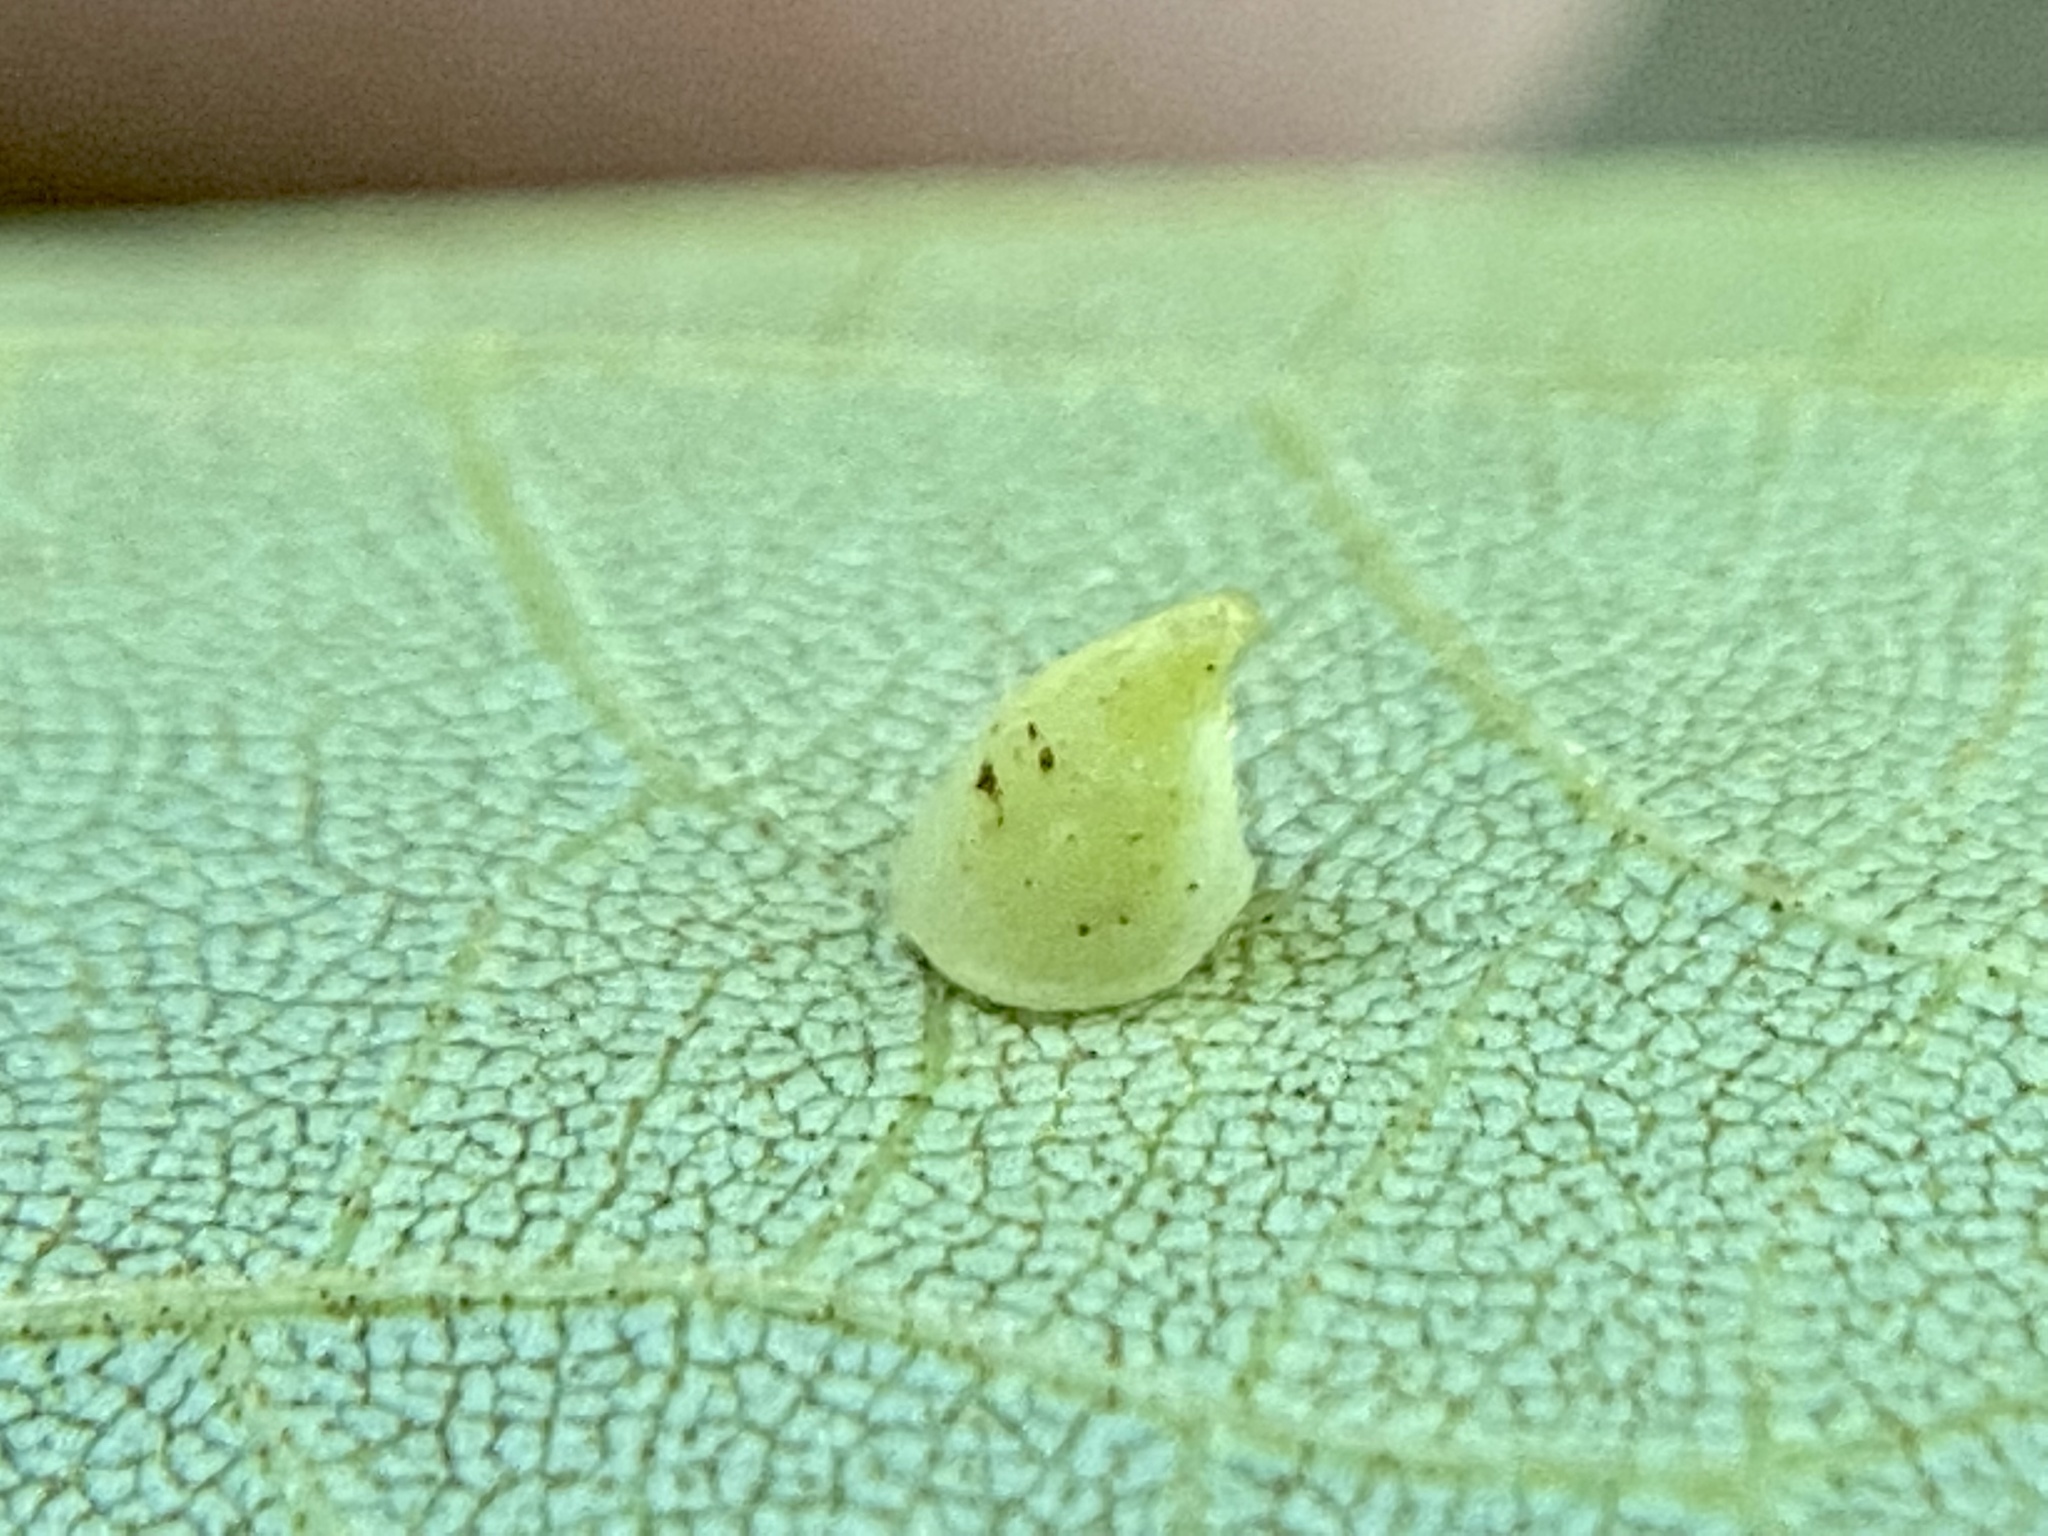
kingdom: Animalia
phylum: Arthropoda
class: Insecta
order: Diptera
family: Cecidomyiidae
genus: Caryomyia
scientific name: Caryomyia sanguinolenta
